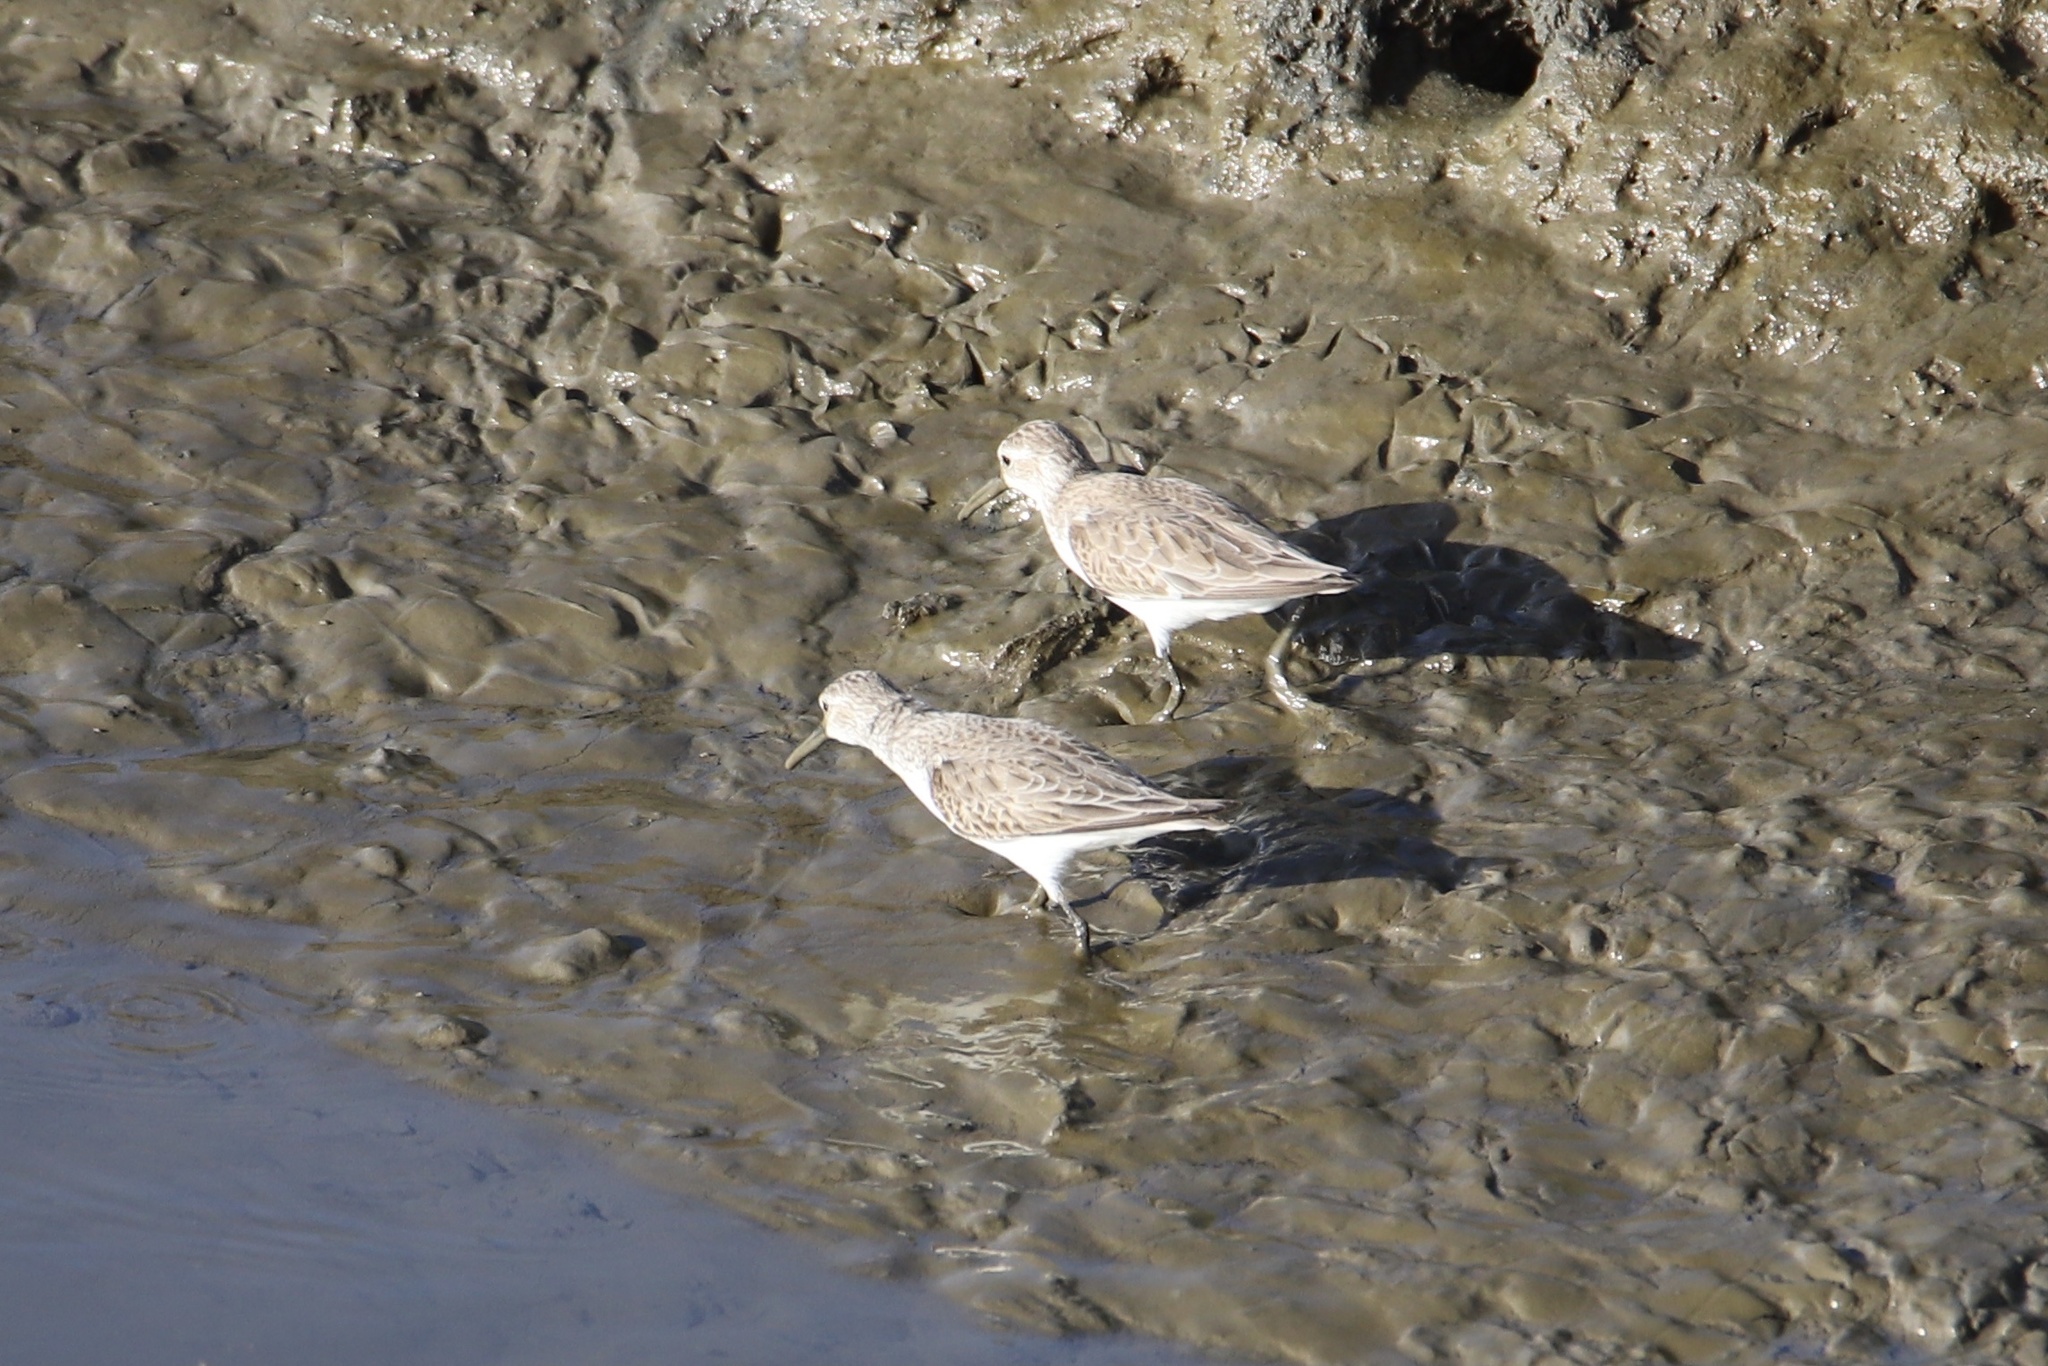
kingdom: Animalia
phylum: Chordata
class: Aves
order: Charadriiformes
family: Scolopacidae
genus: Calidris
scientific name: Calidris mauri
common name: Western sandpiper
